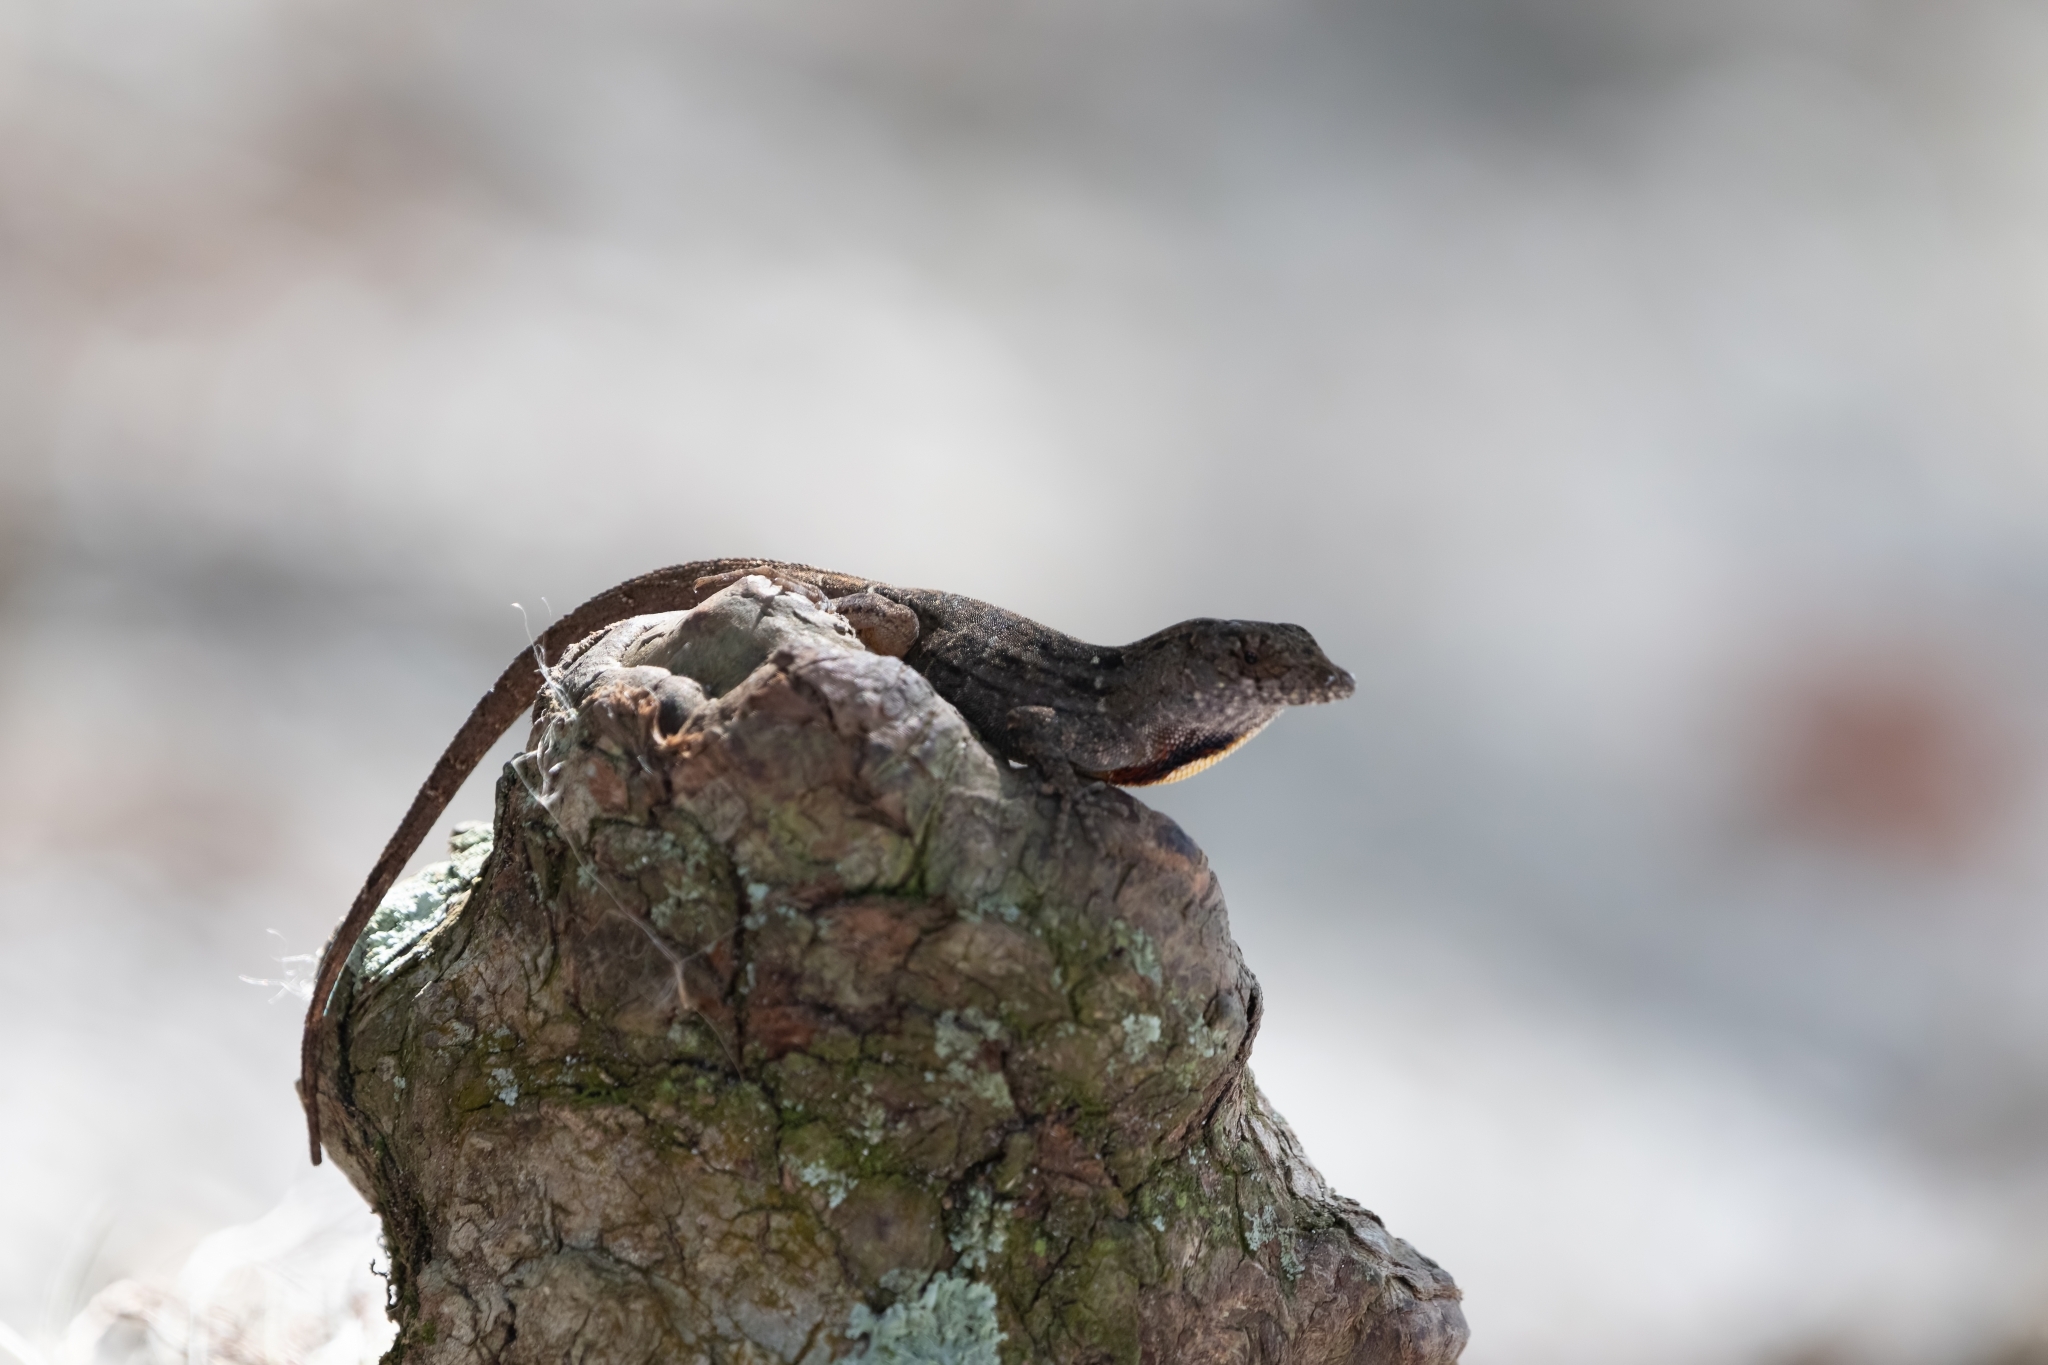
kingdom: Animalia
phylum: Chordata
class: Squamata
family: Dactyloidae
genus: Anolis
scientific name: Anolis sagrei
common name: Brown anole
